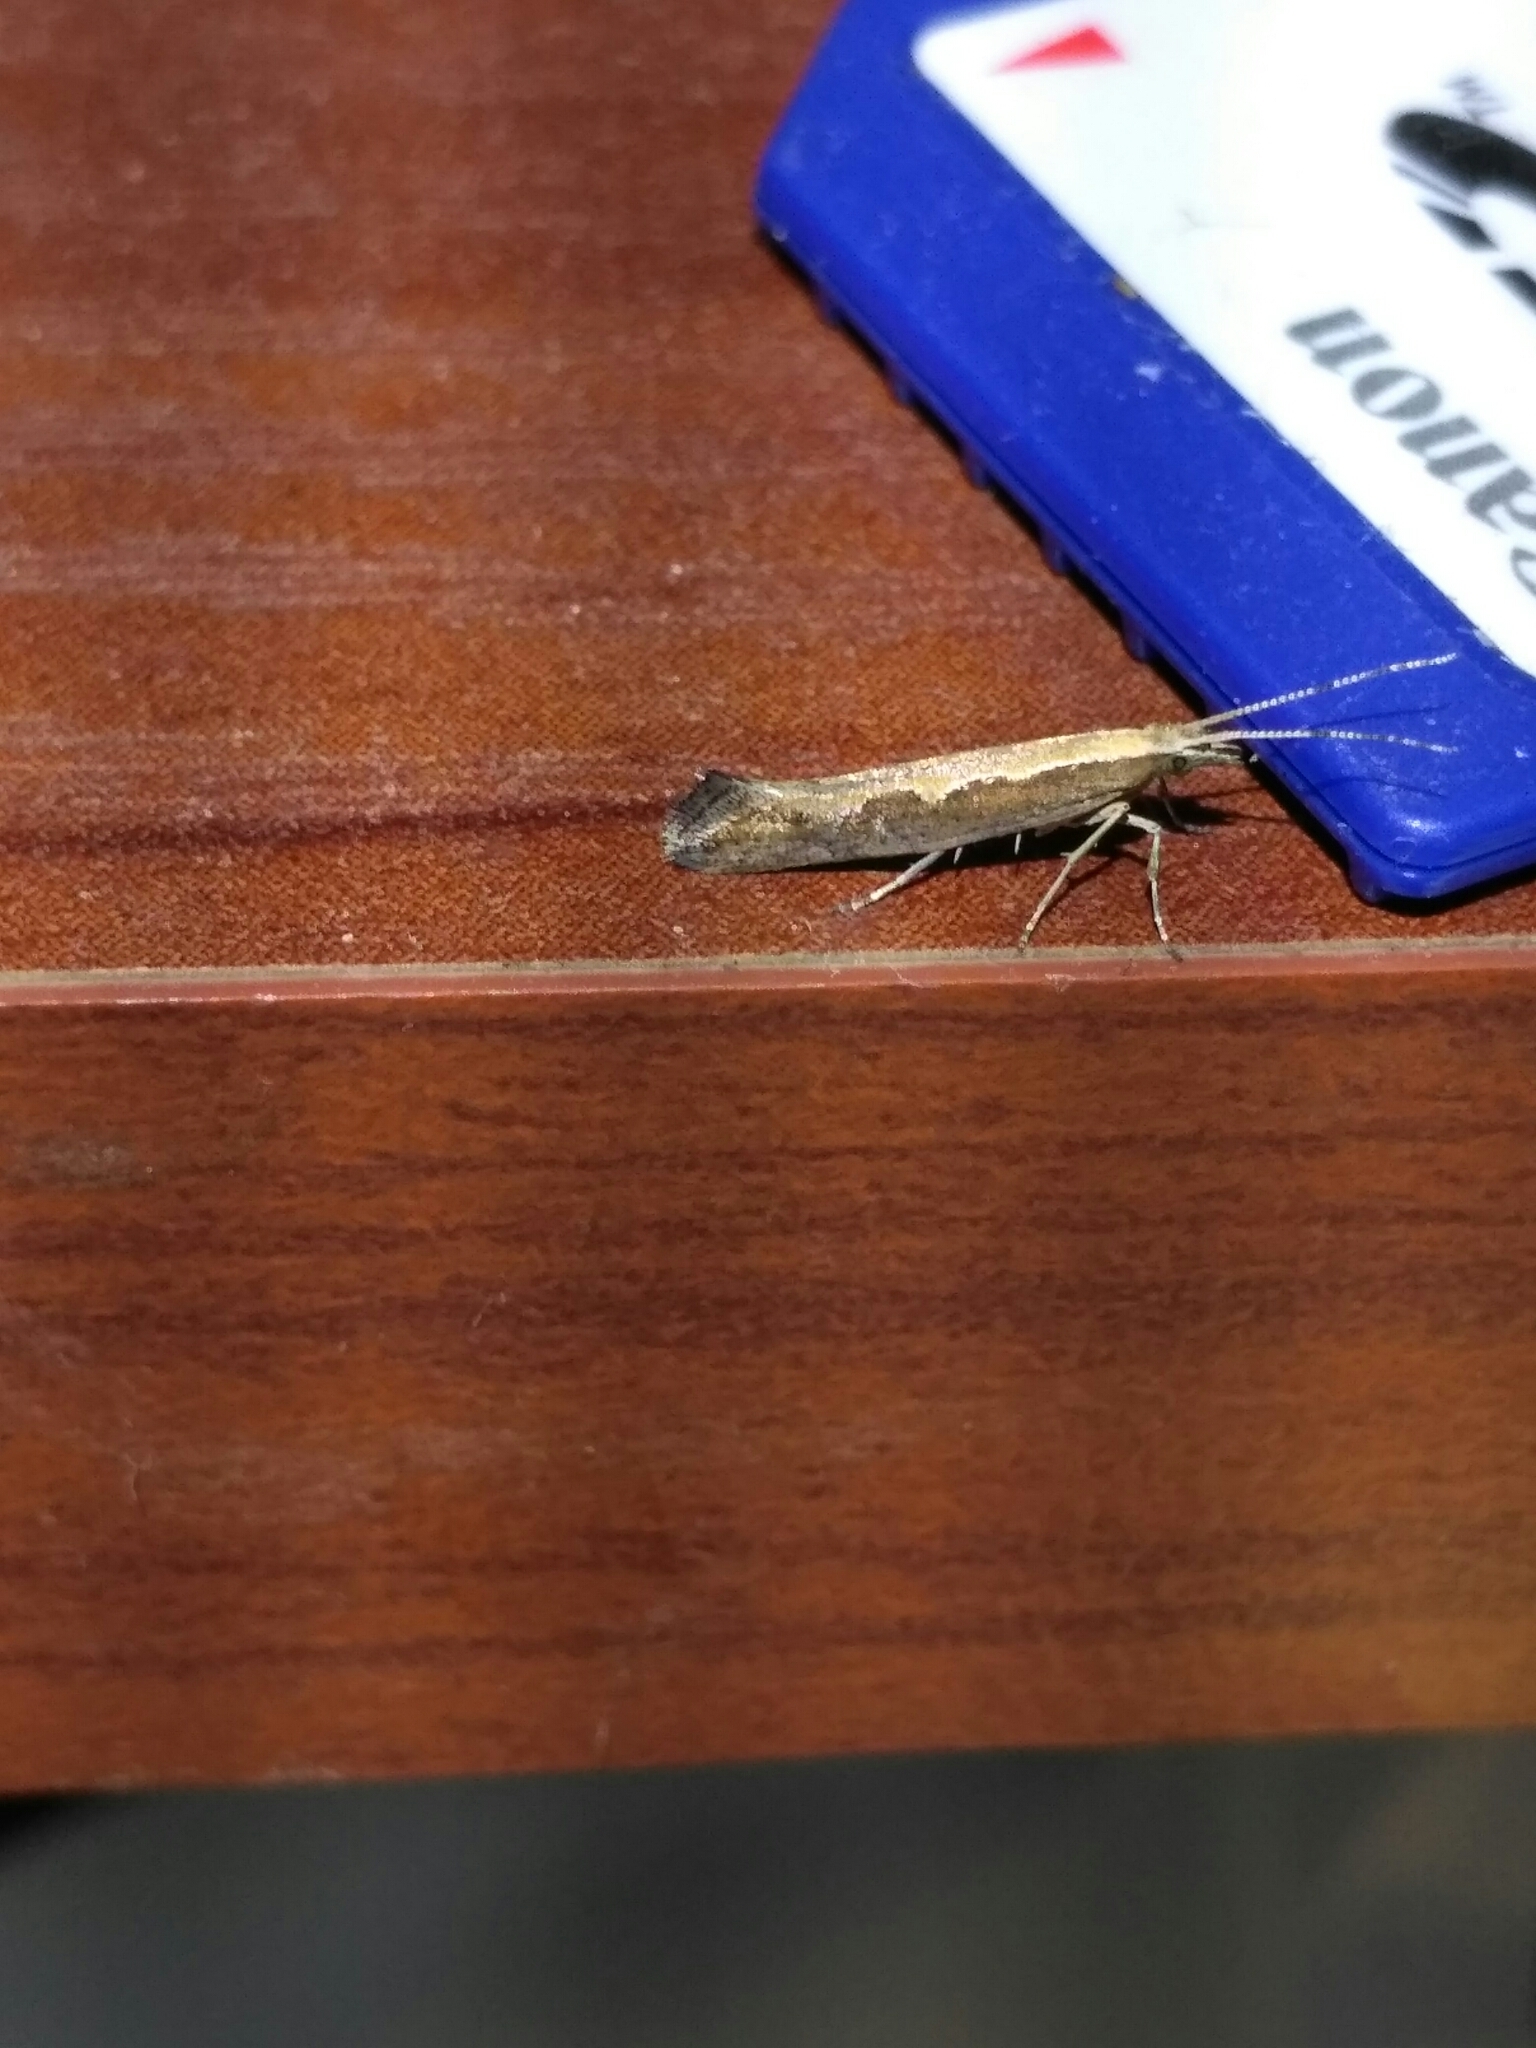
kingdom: Animalia
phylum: Arthropoda
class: Insecta
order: Lepidoptera
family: Plutellidae
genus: Plutella
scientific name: Plutella xylostella
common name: Diamond-back moth
